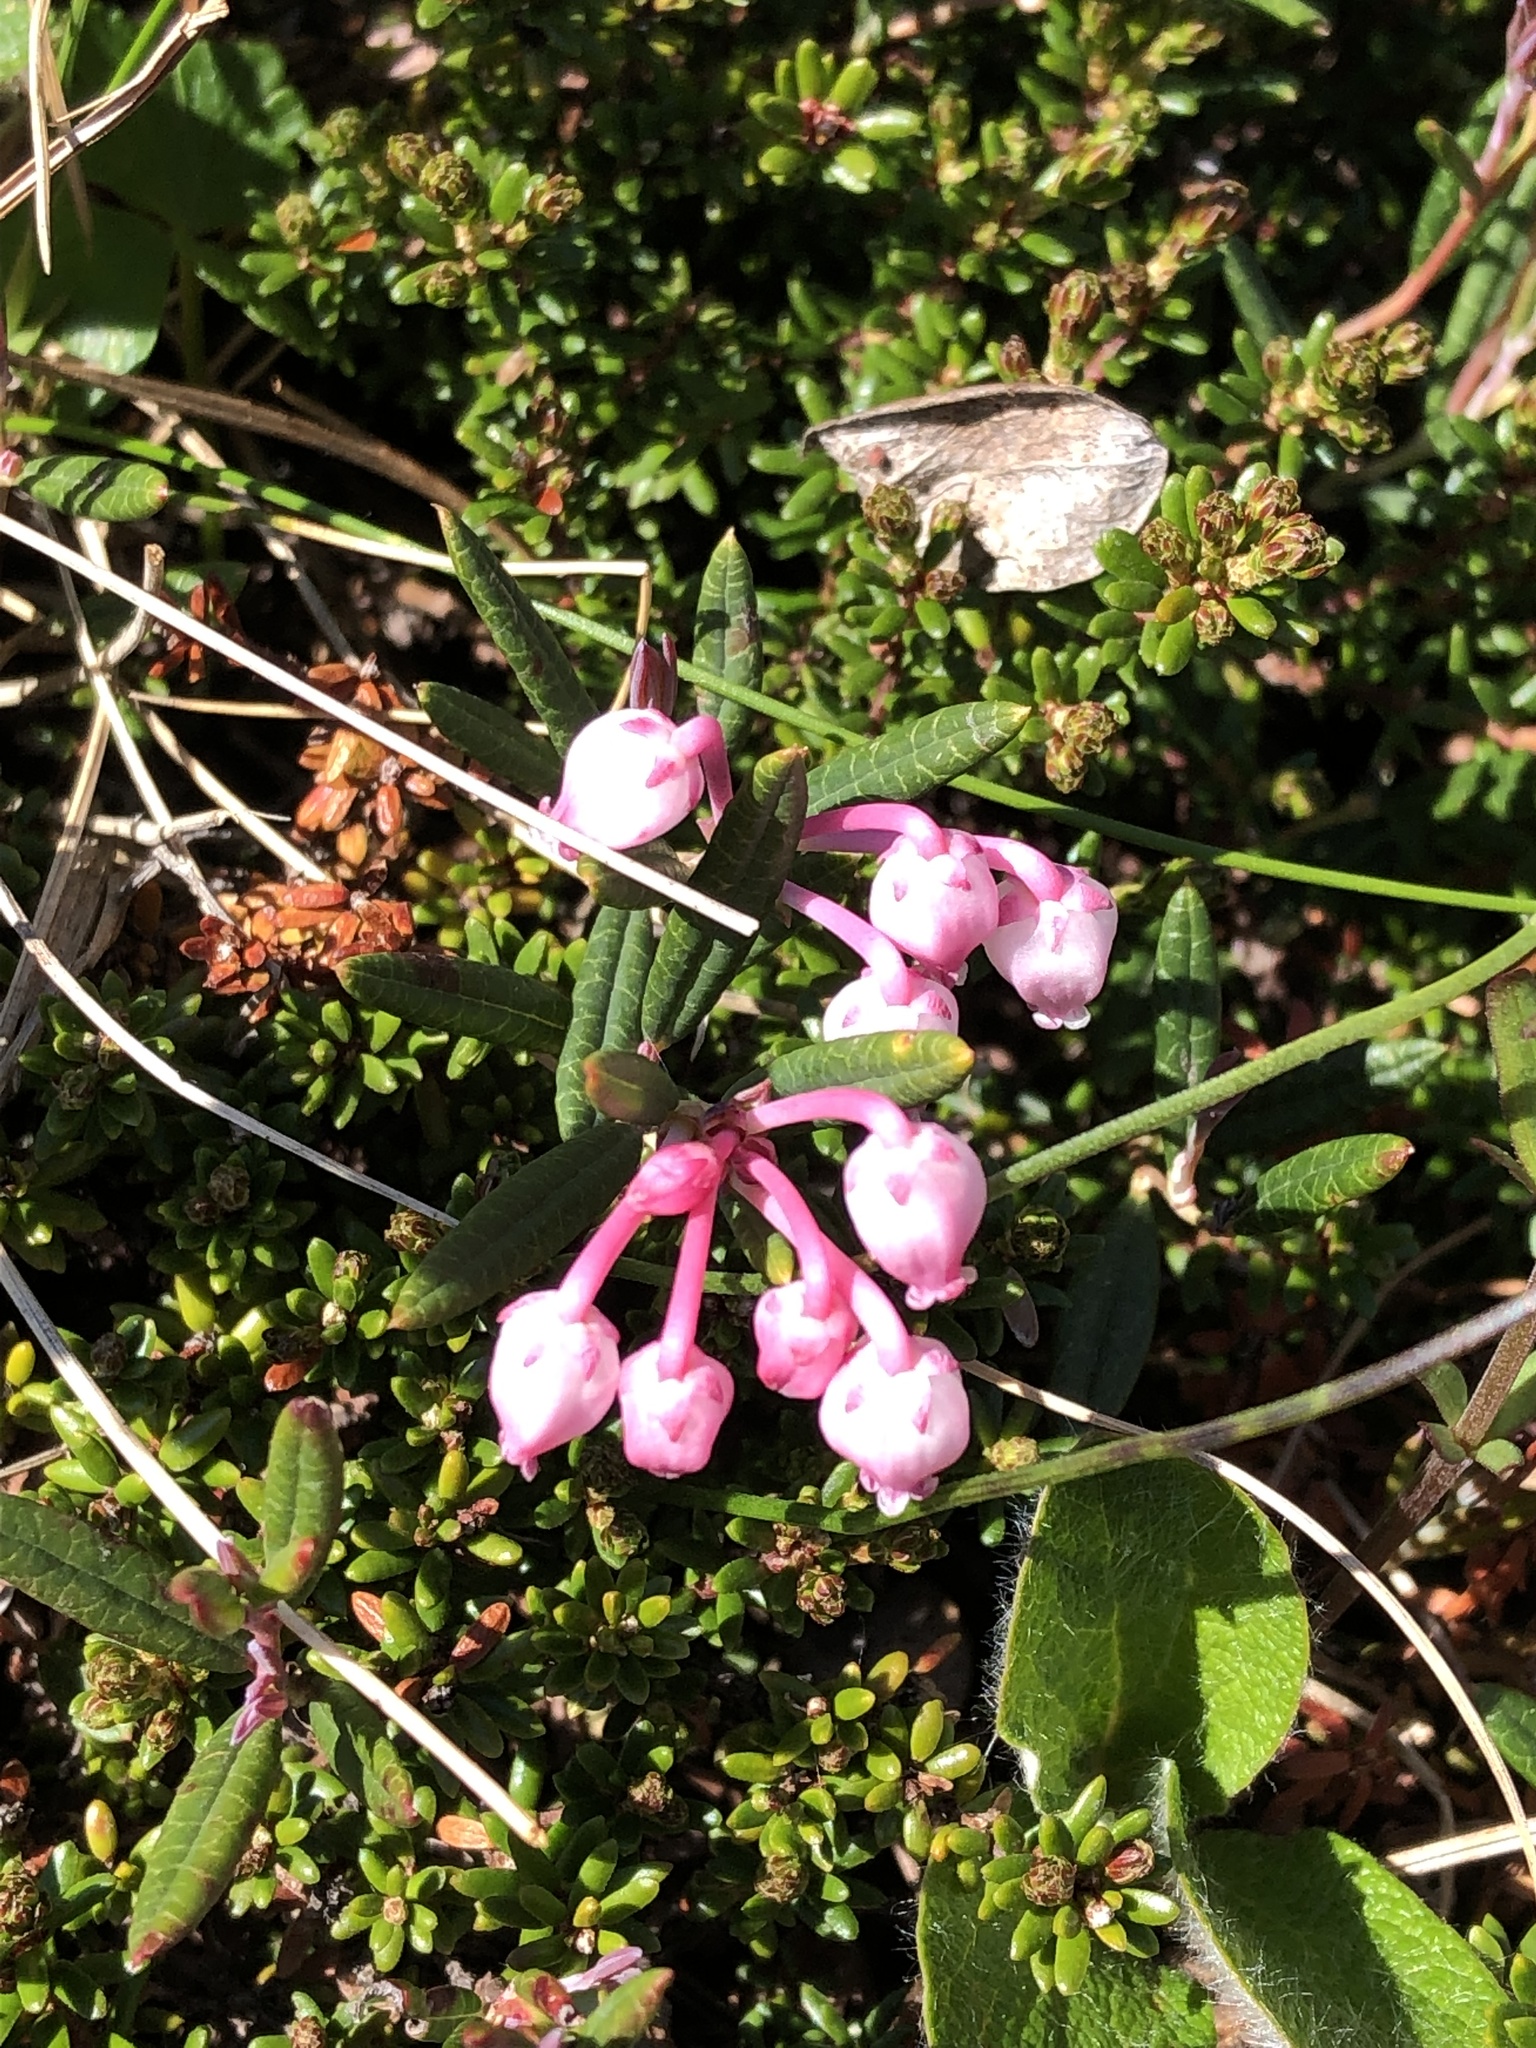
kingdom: Plantae
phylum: Tracheophyta
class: Magnoliopsida
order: Ericales
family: Ericaceae
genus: Andromeda
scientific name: Andromeda polifolia
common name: Bog-rosemary
